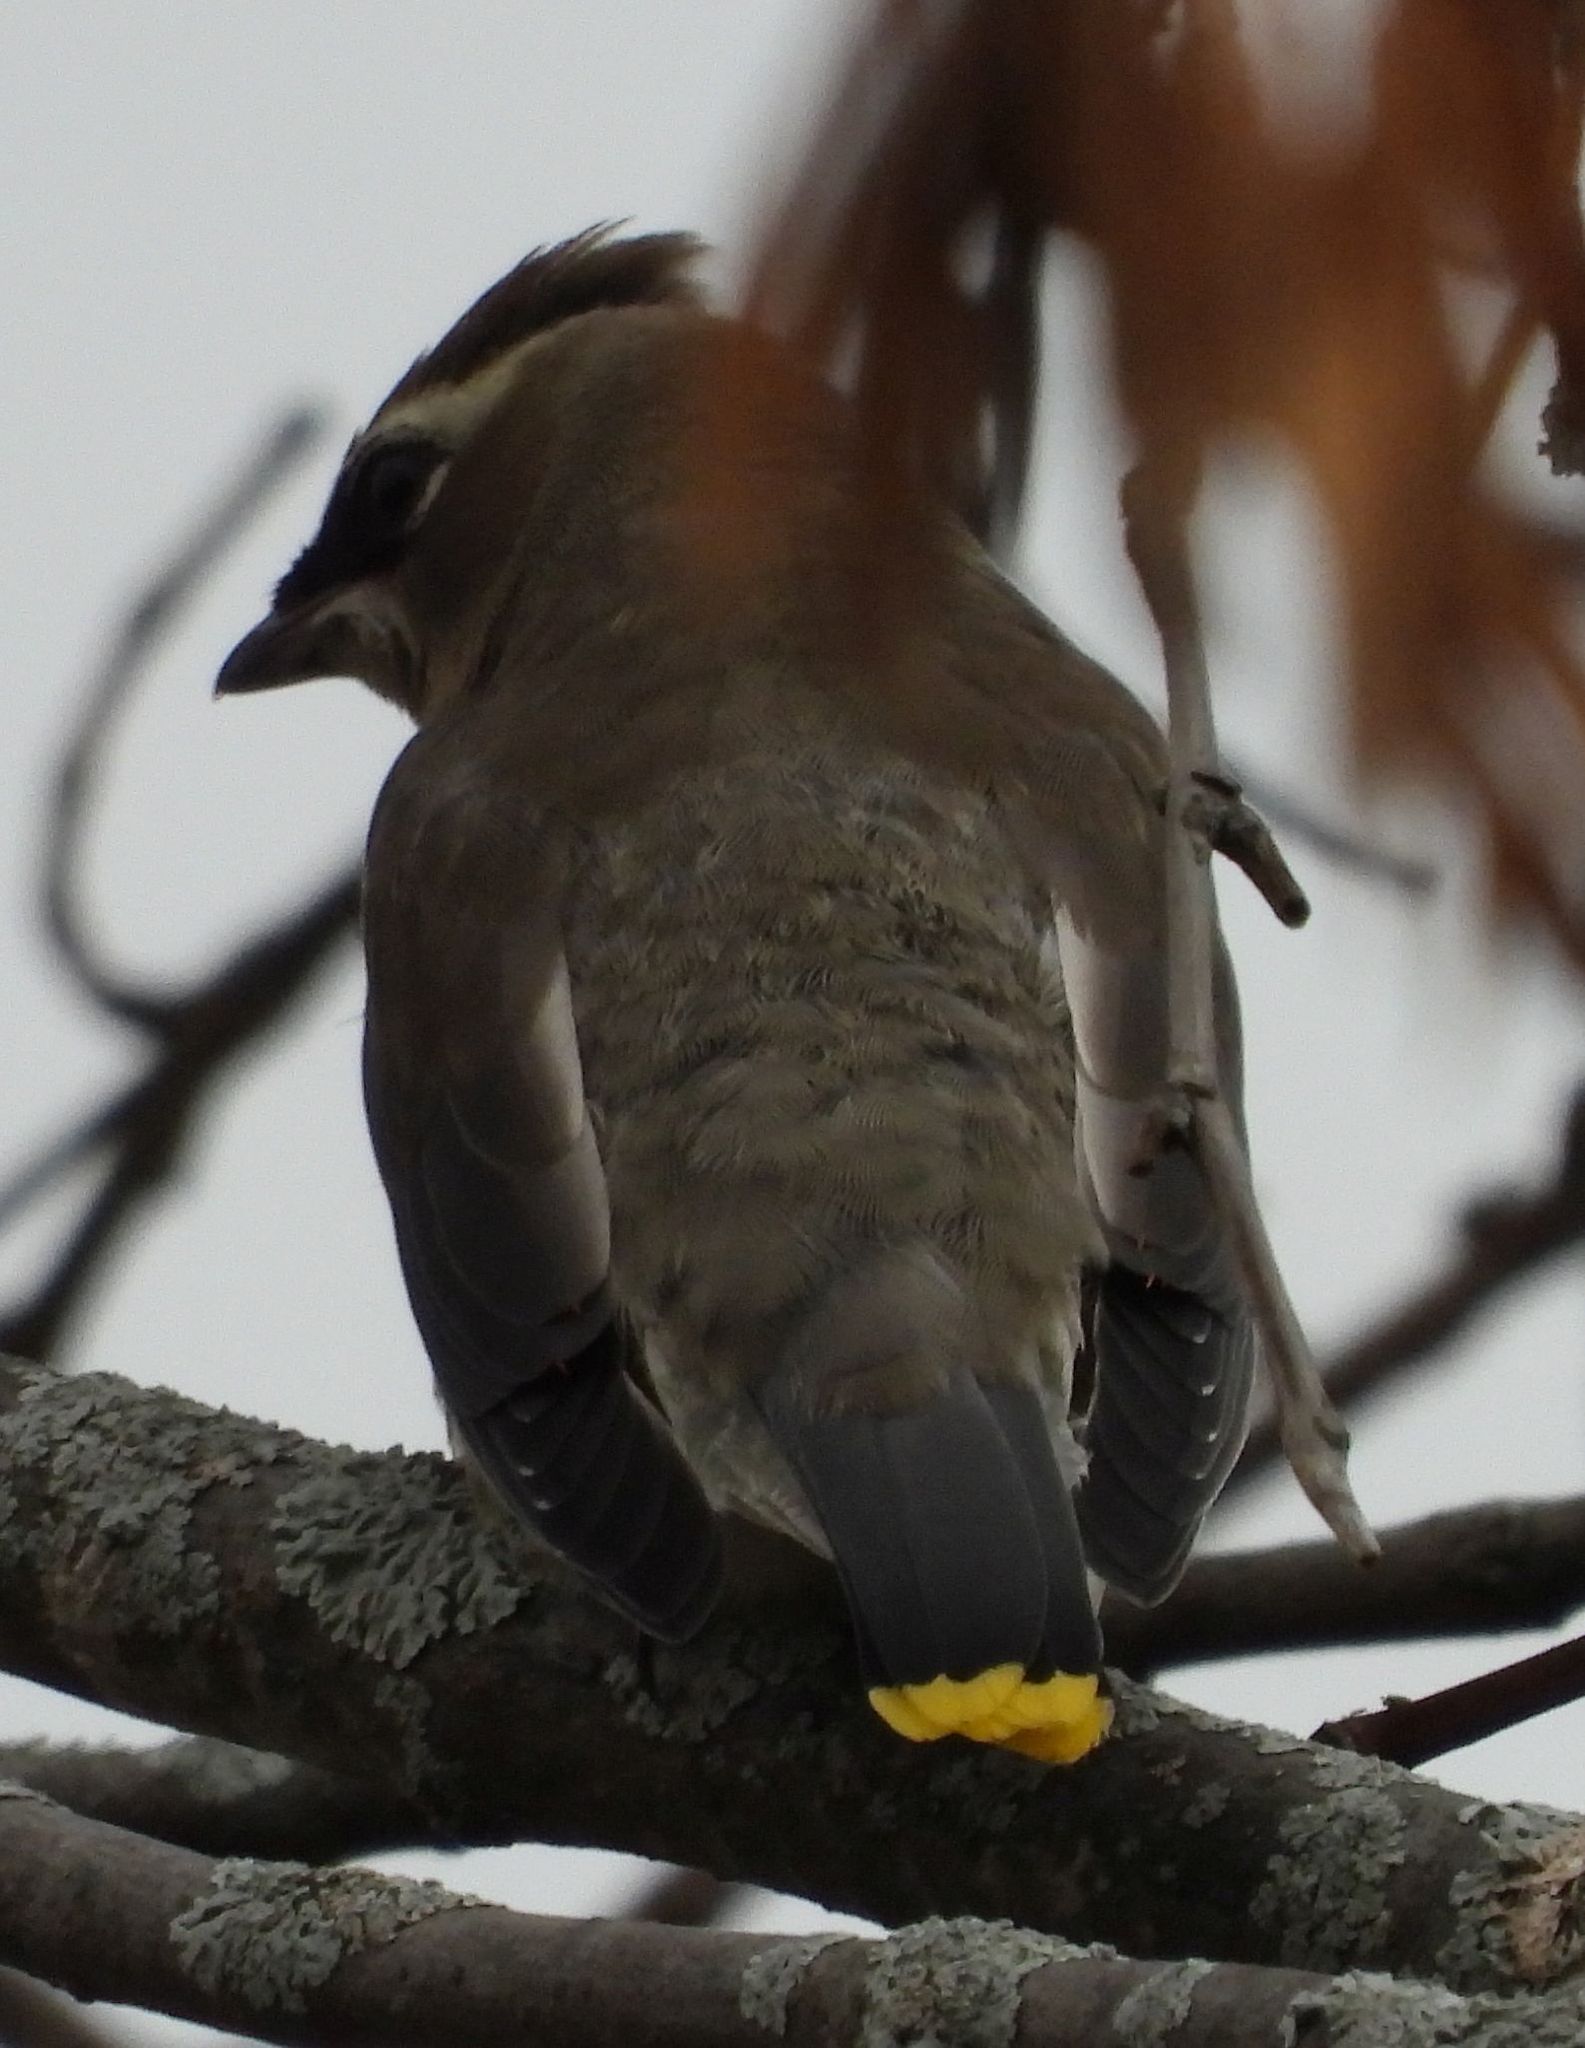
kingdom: Animalia
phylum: Chordata
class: Aves
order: Passeriformes
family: Bombycillidae
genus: Bombycilla
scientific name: Bombycilla cedrorum
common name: Cedar waxwing
